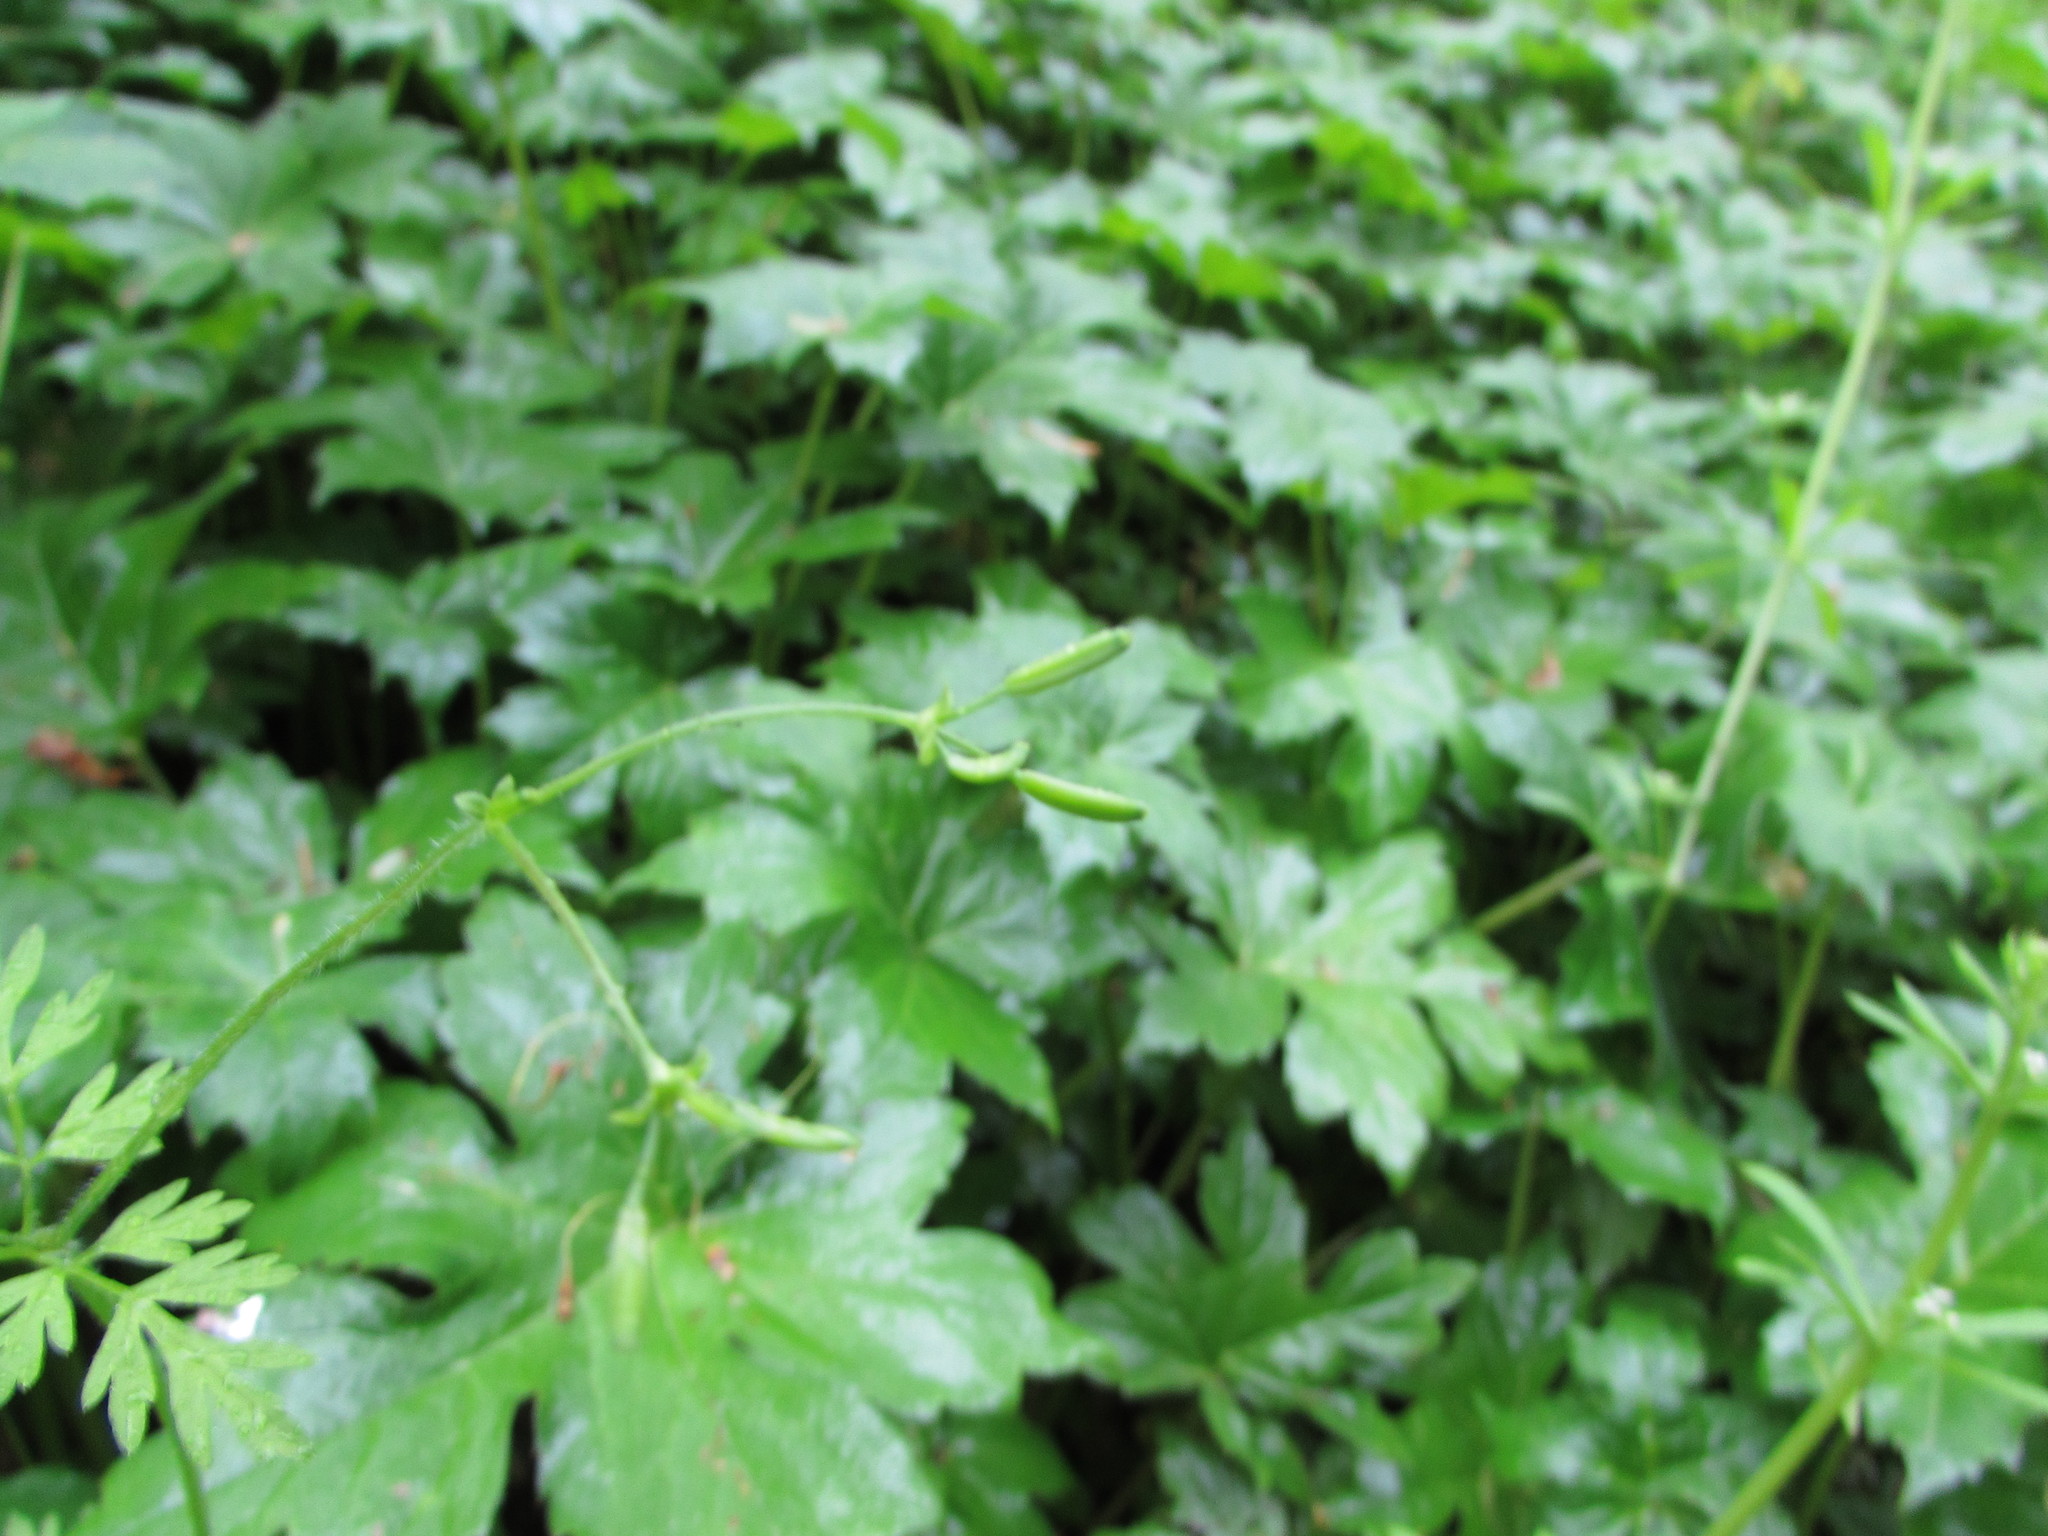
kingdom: Plantae
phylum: Tracheophyta
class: Magnoliopsida
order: Apiales
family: Apiaceae
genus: Chaerophyllum
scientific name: Chaerophyllum procumbens
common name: Spreading chervil
